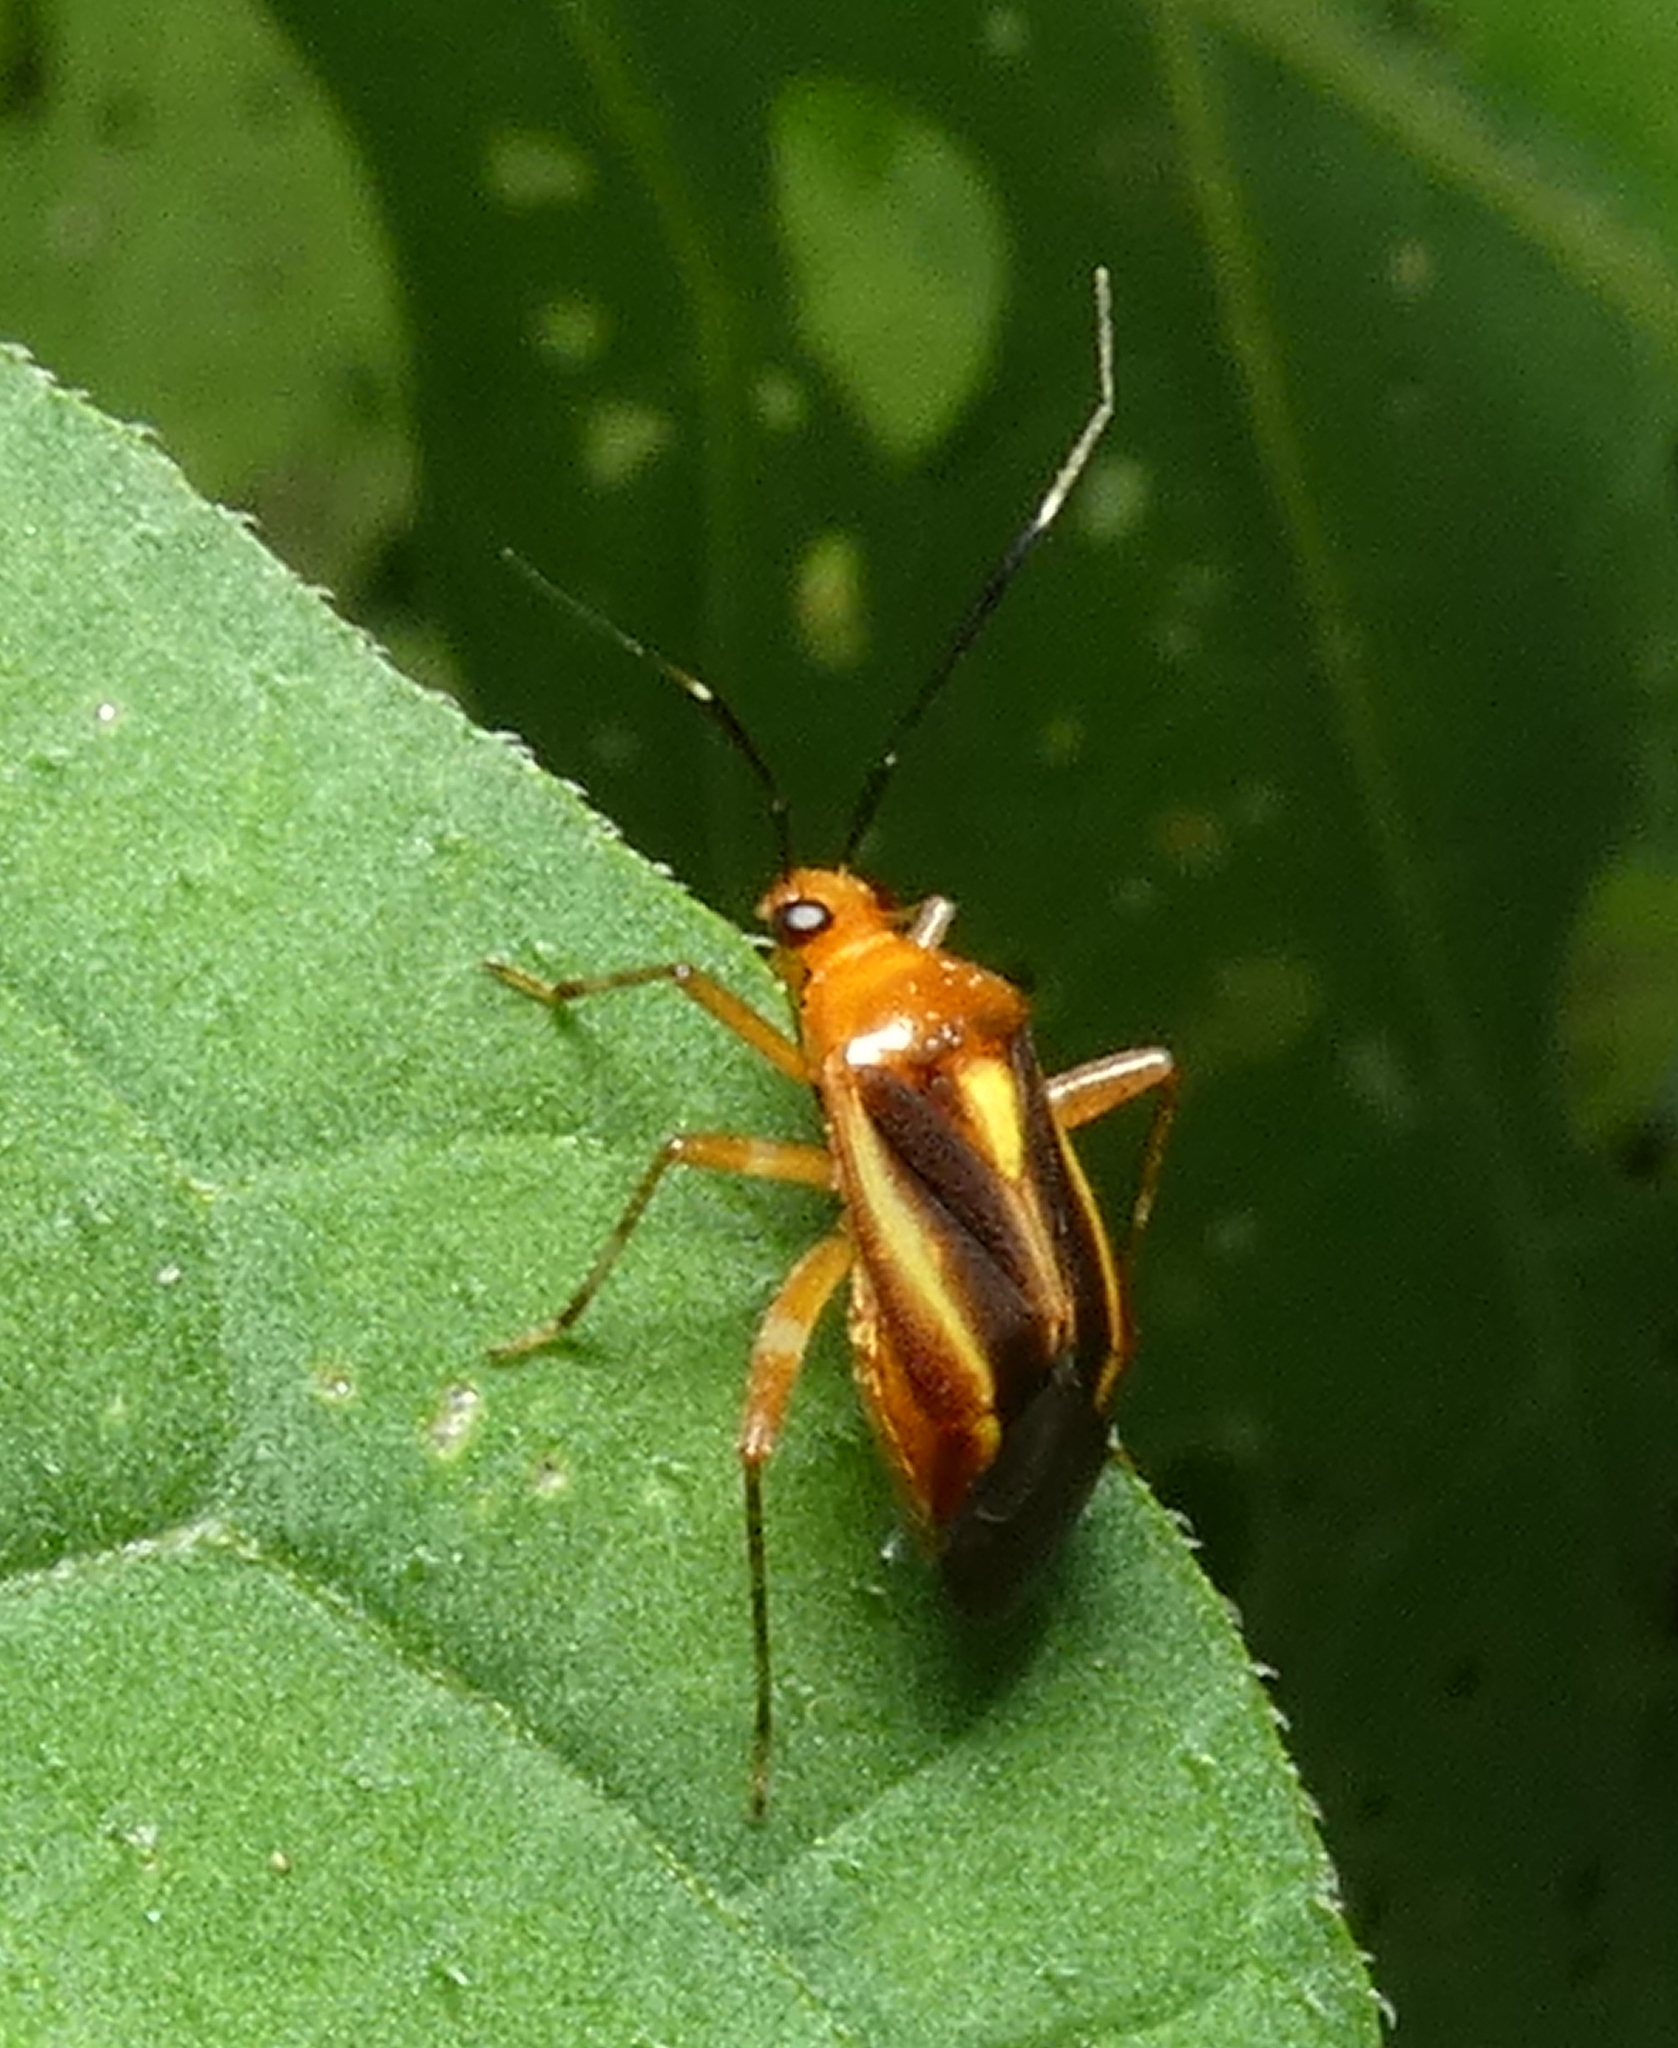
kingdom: Animalia
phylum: Arthropoda
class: Insecta
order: Hemiptera
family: Miridae
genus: Horciasinus
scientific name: Horciasinus signoreti
